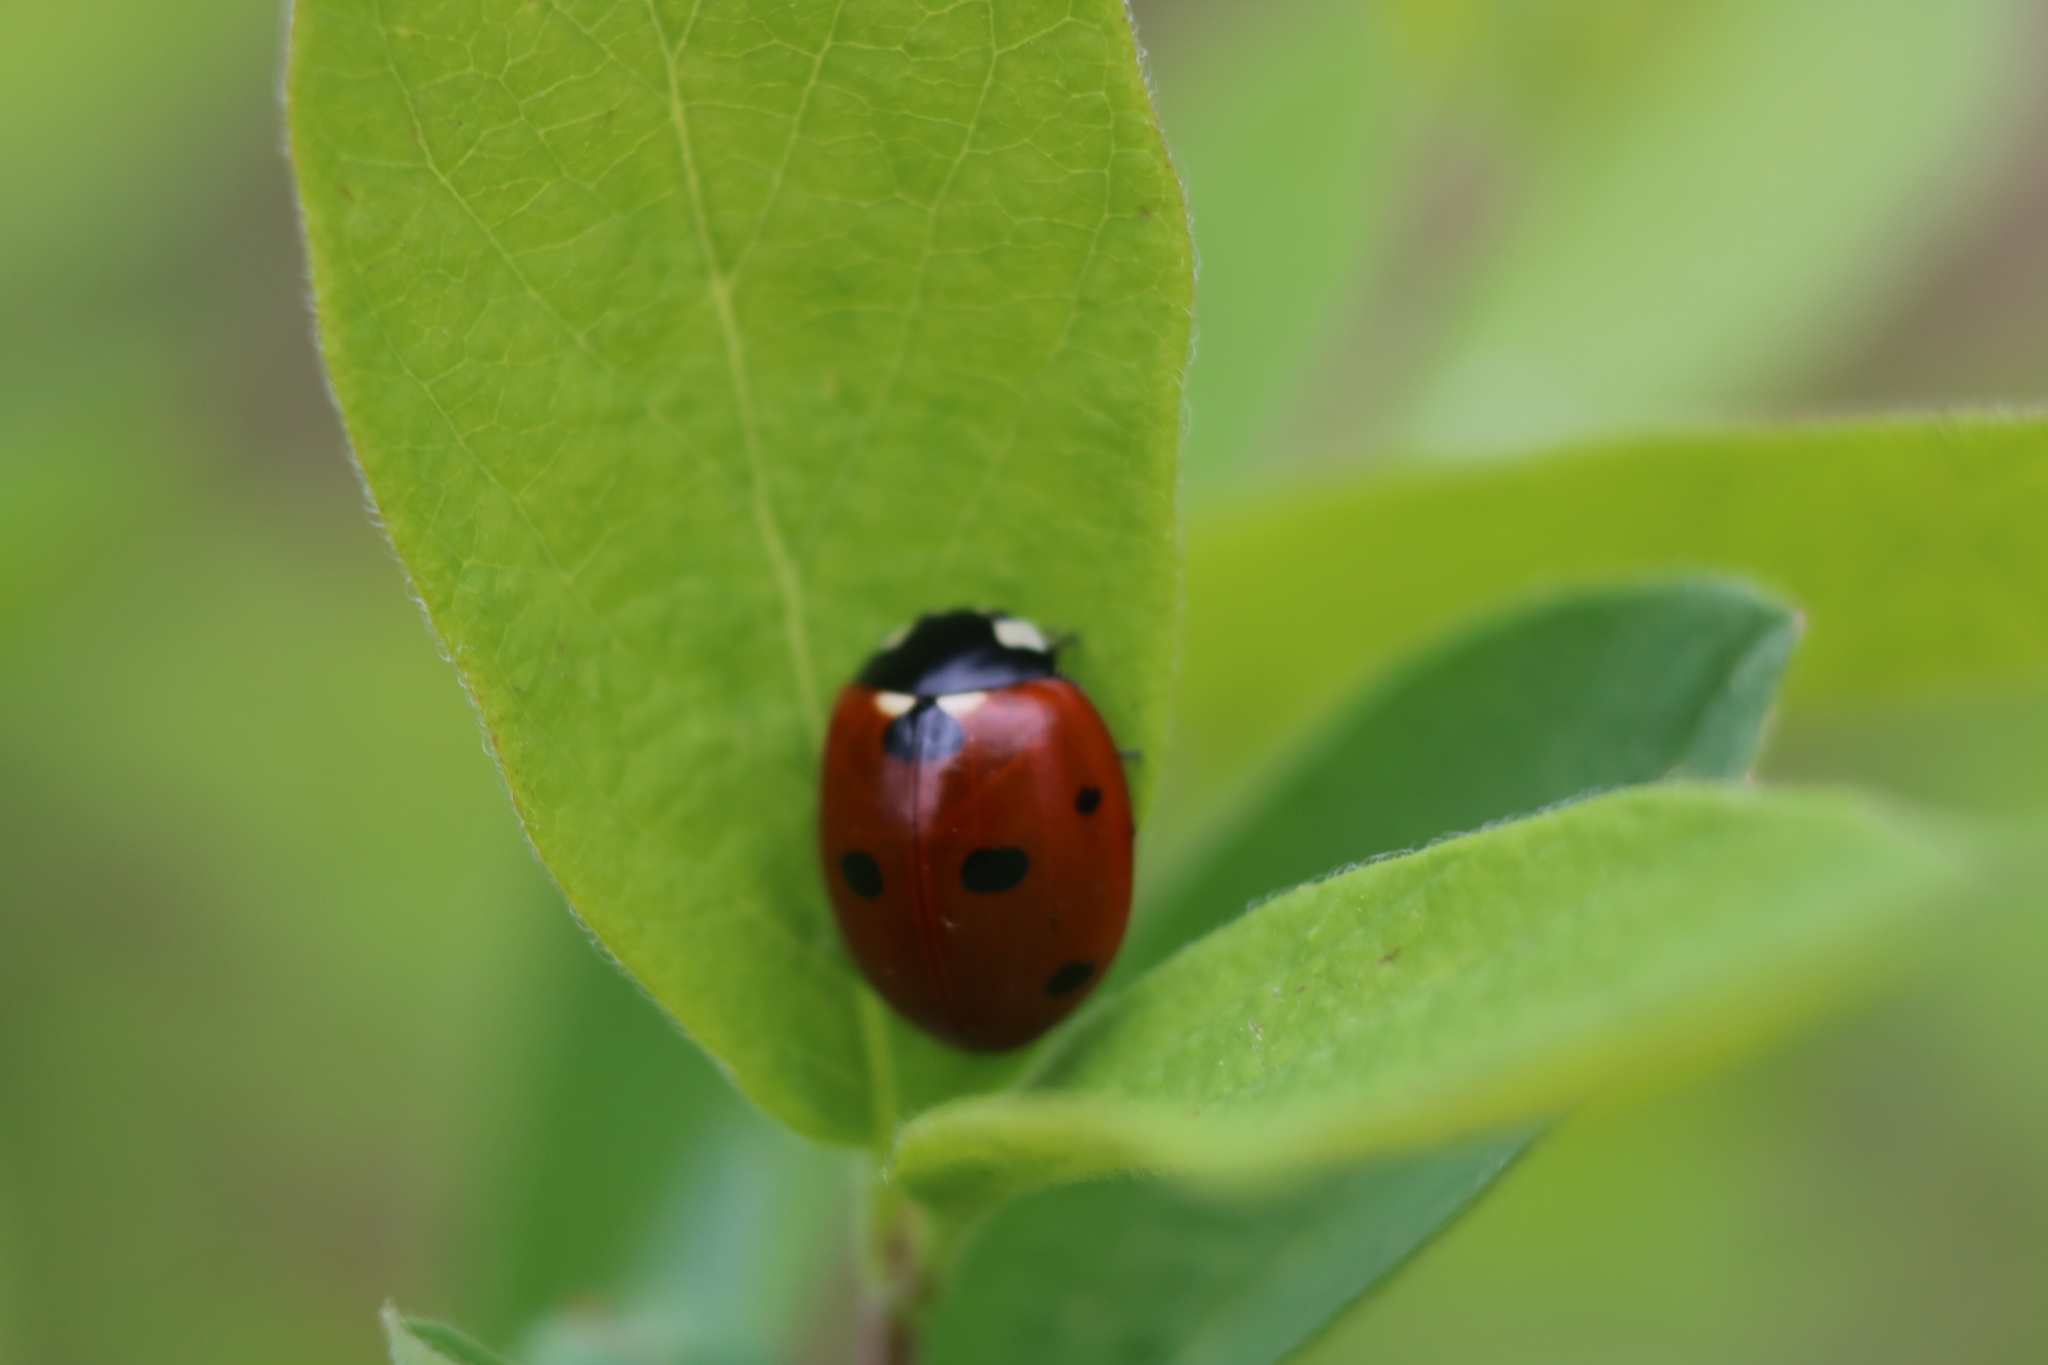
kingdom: Animalia
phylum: Arthropoda
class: Insecta
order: Coleoptera
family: Coccinellidae
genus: Coccinella
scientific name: Coccinella septempunctata
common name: Sevenspotted lady beetle
